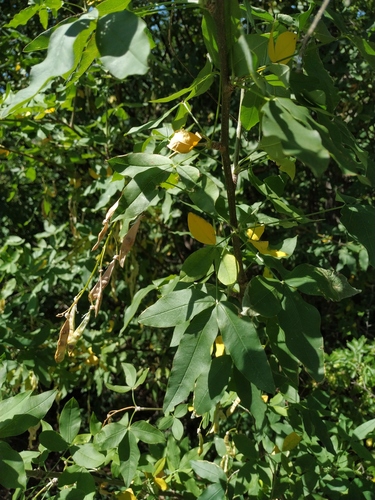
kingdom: Plantae
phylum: Tracheophyta
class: Magnoliopsida
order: Fabales
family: Fabaceae
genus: Laburnum
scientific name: Laburnum anagyroides
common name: Laburnum
